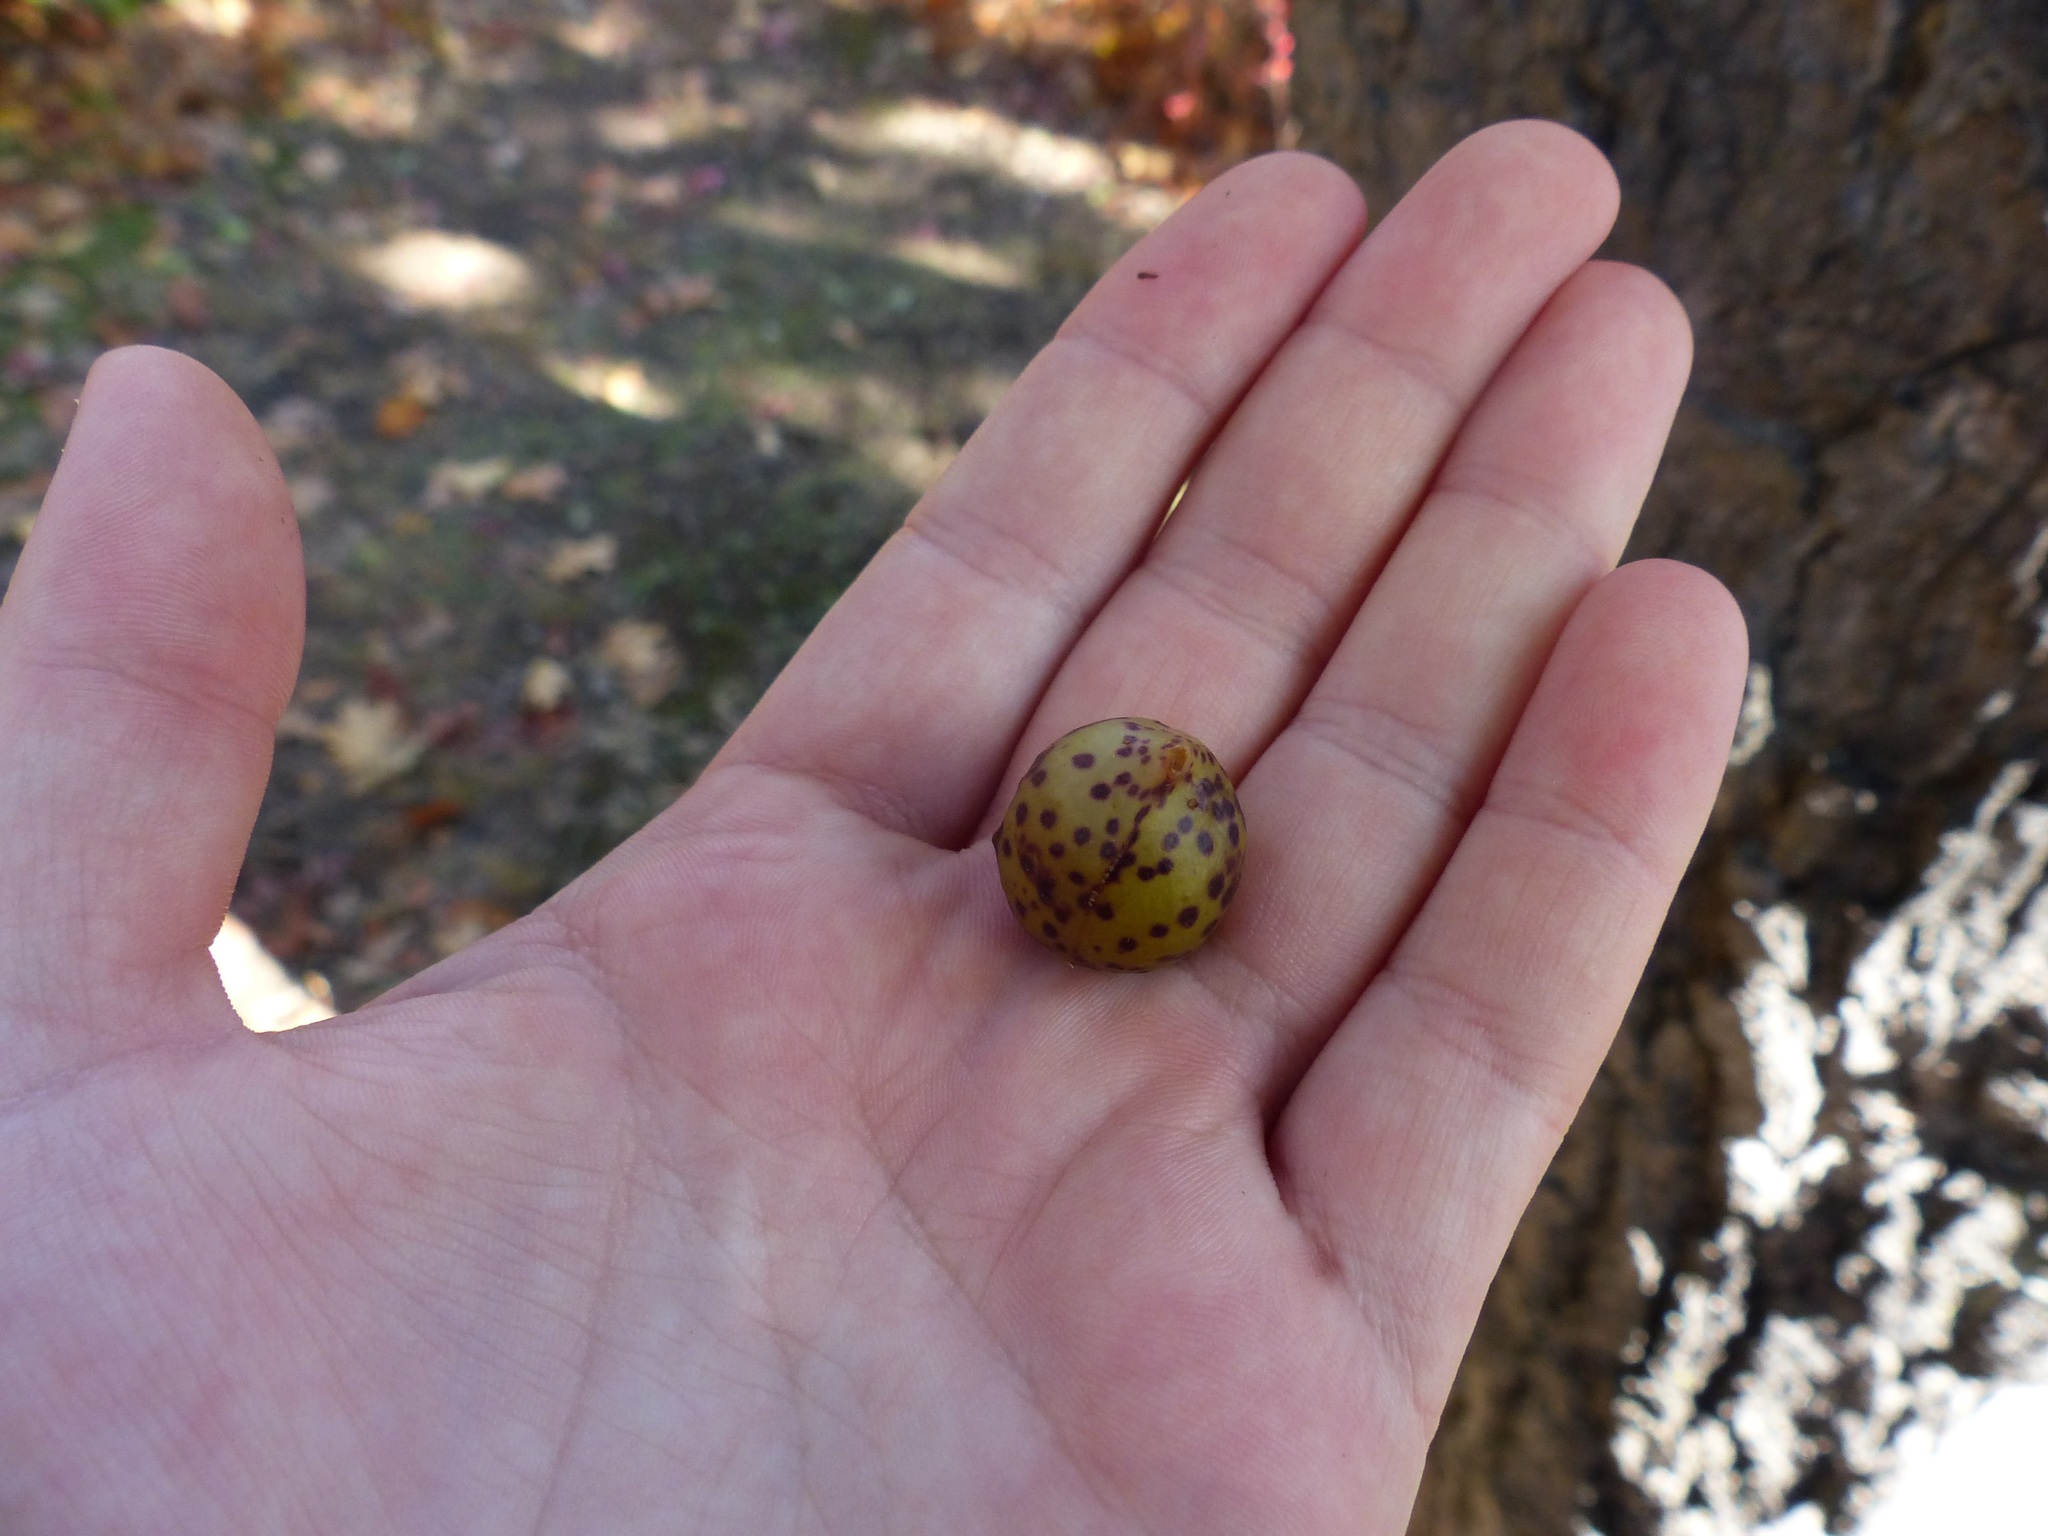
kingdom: Animalia
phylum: Arthropoda
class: Insecta
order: Hymenoptera
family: Cynipidae
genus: Amphibolips
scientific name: Amphibolips
